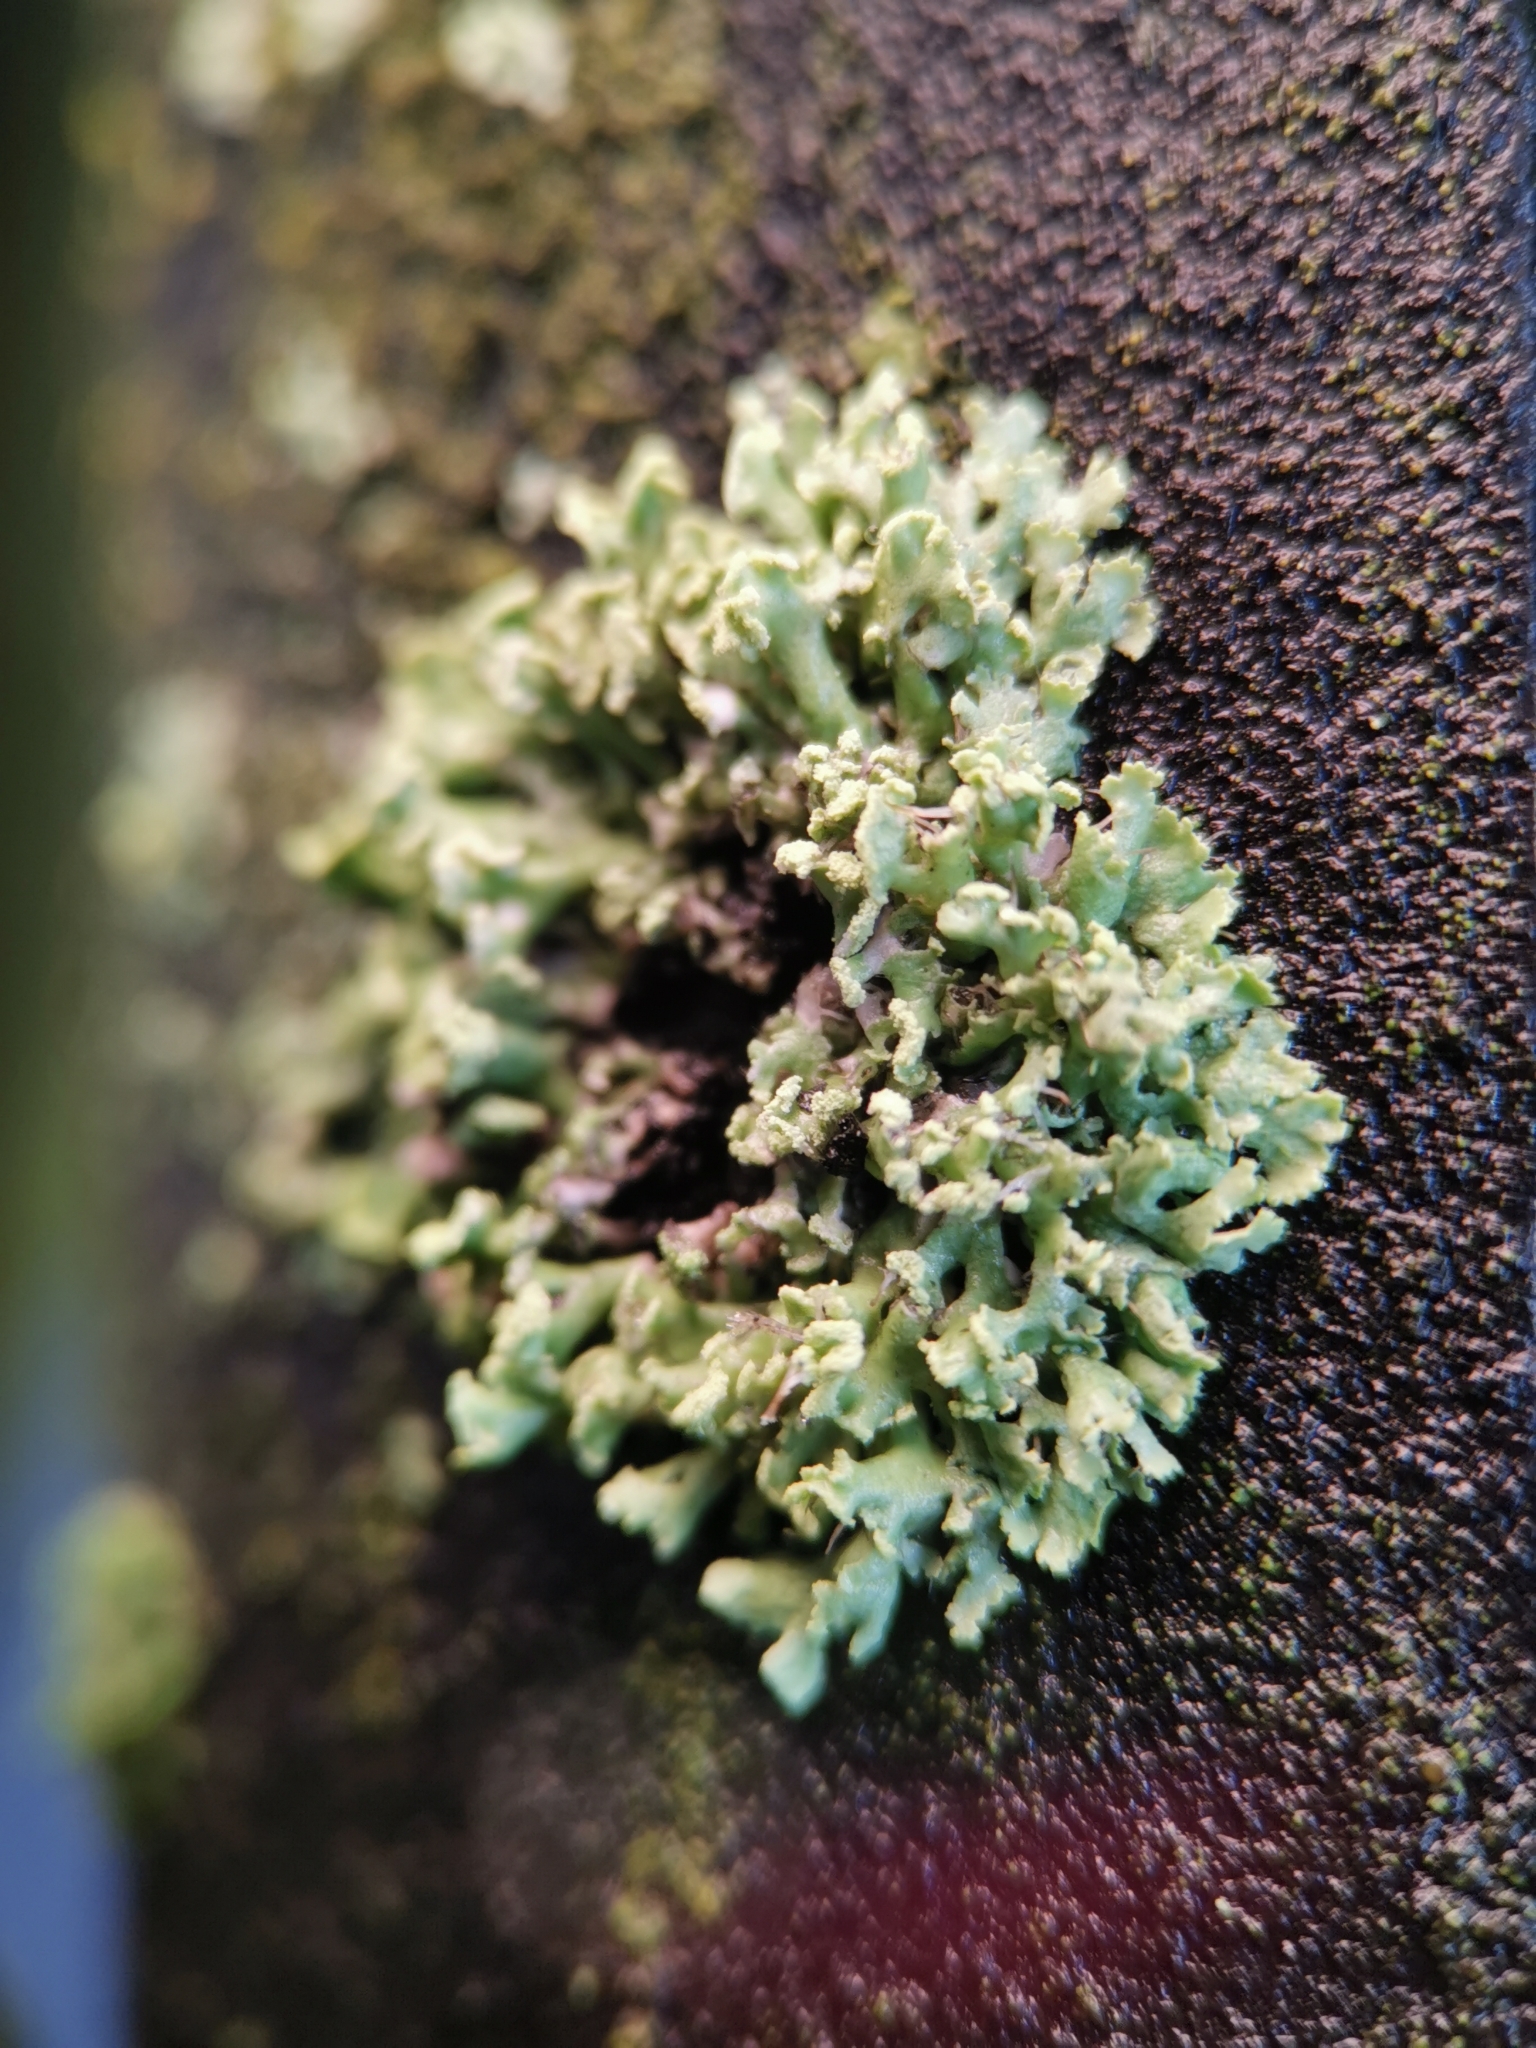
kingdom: Fungi
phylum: Ascomycota
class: Lecanoromycetes
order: Caliciales
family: Physciaceae
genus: Physcia
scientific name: Physcia tenella
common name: Fringed rosette lichen
